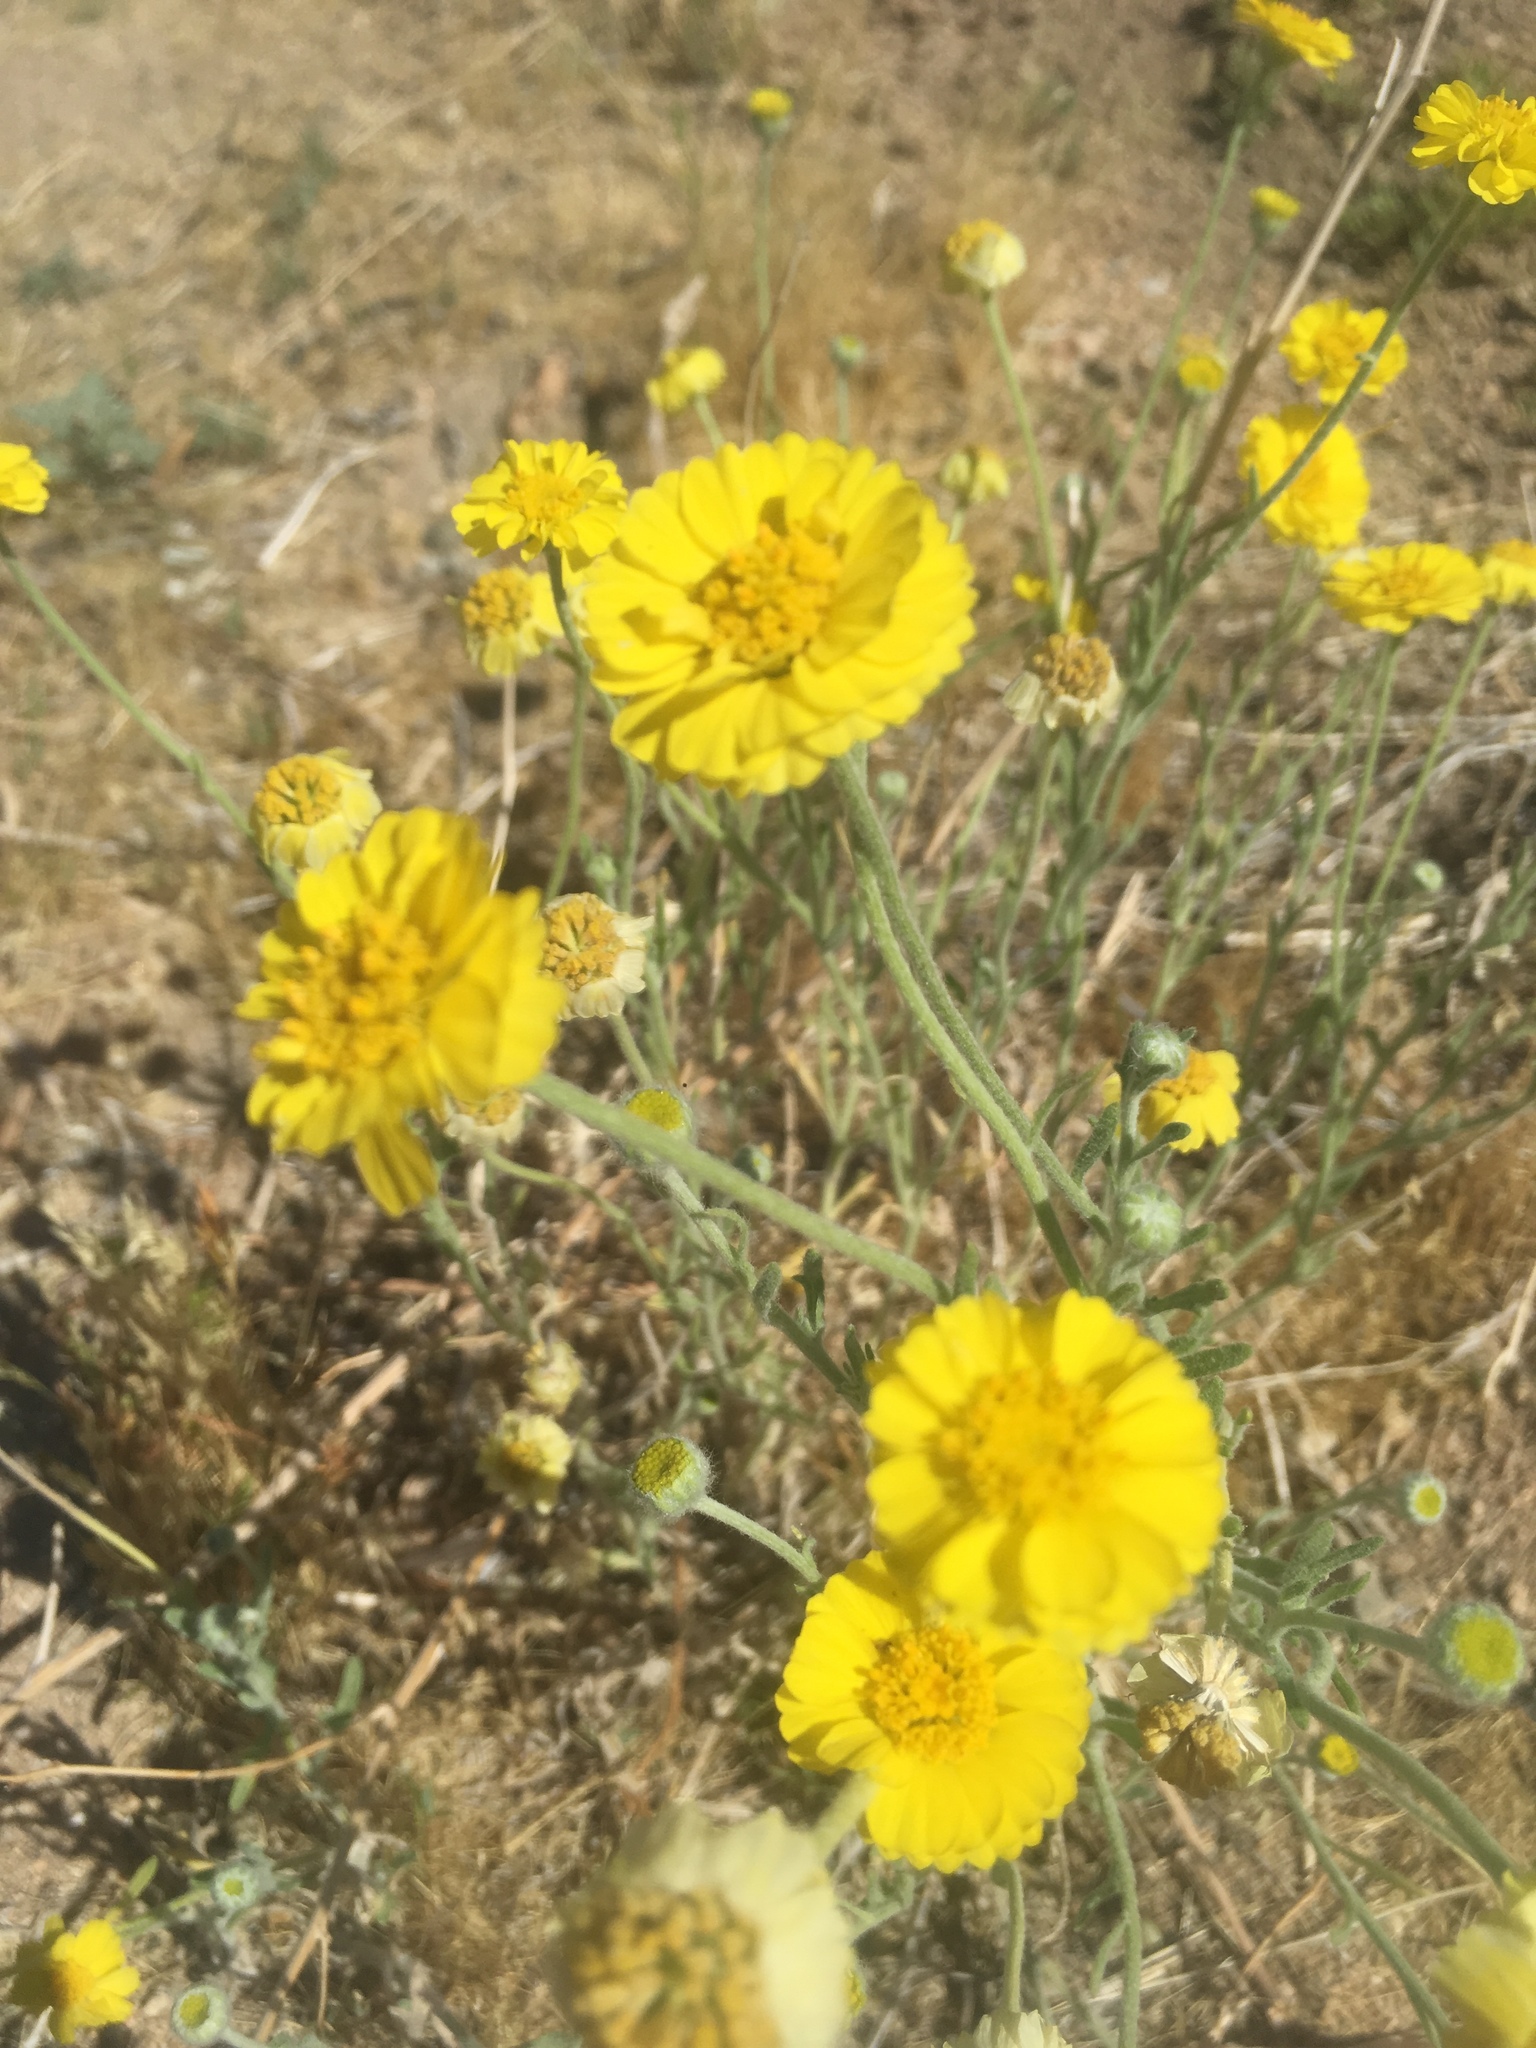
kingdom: Plantae
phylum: Tracheophyta
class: Magnoliopsida
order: Asterales
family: Asteraceae
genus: Baileya
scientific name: Baileya multiradiata
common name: Desert-marigold
